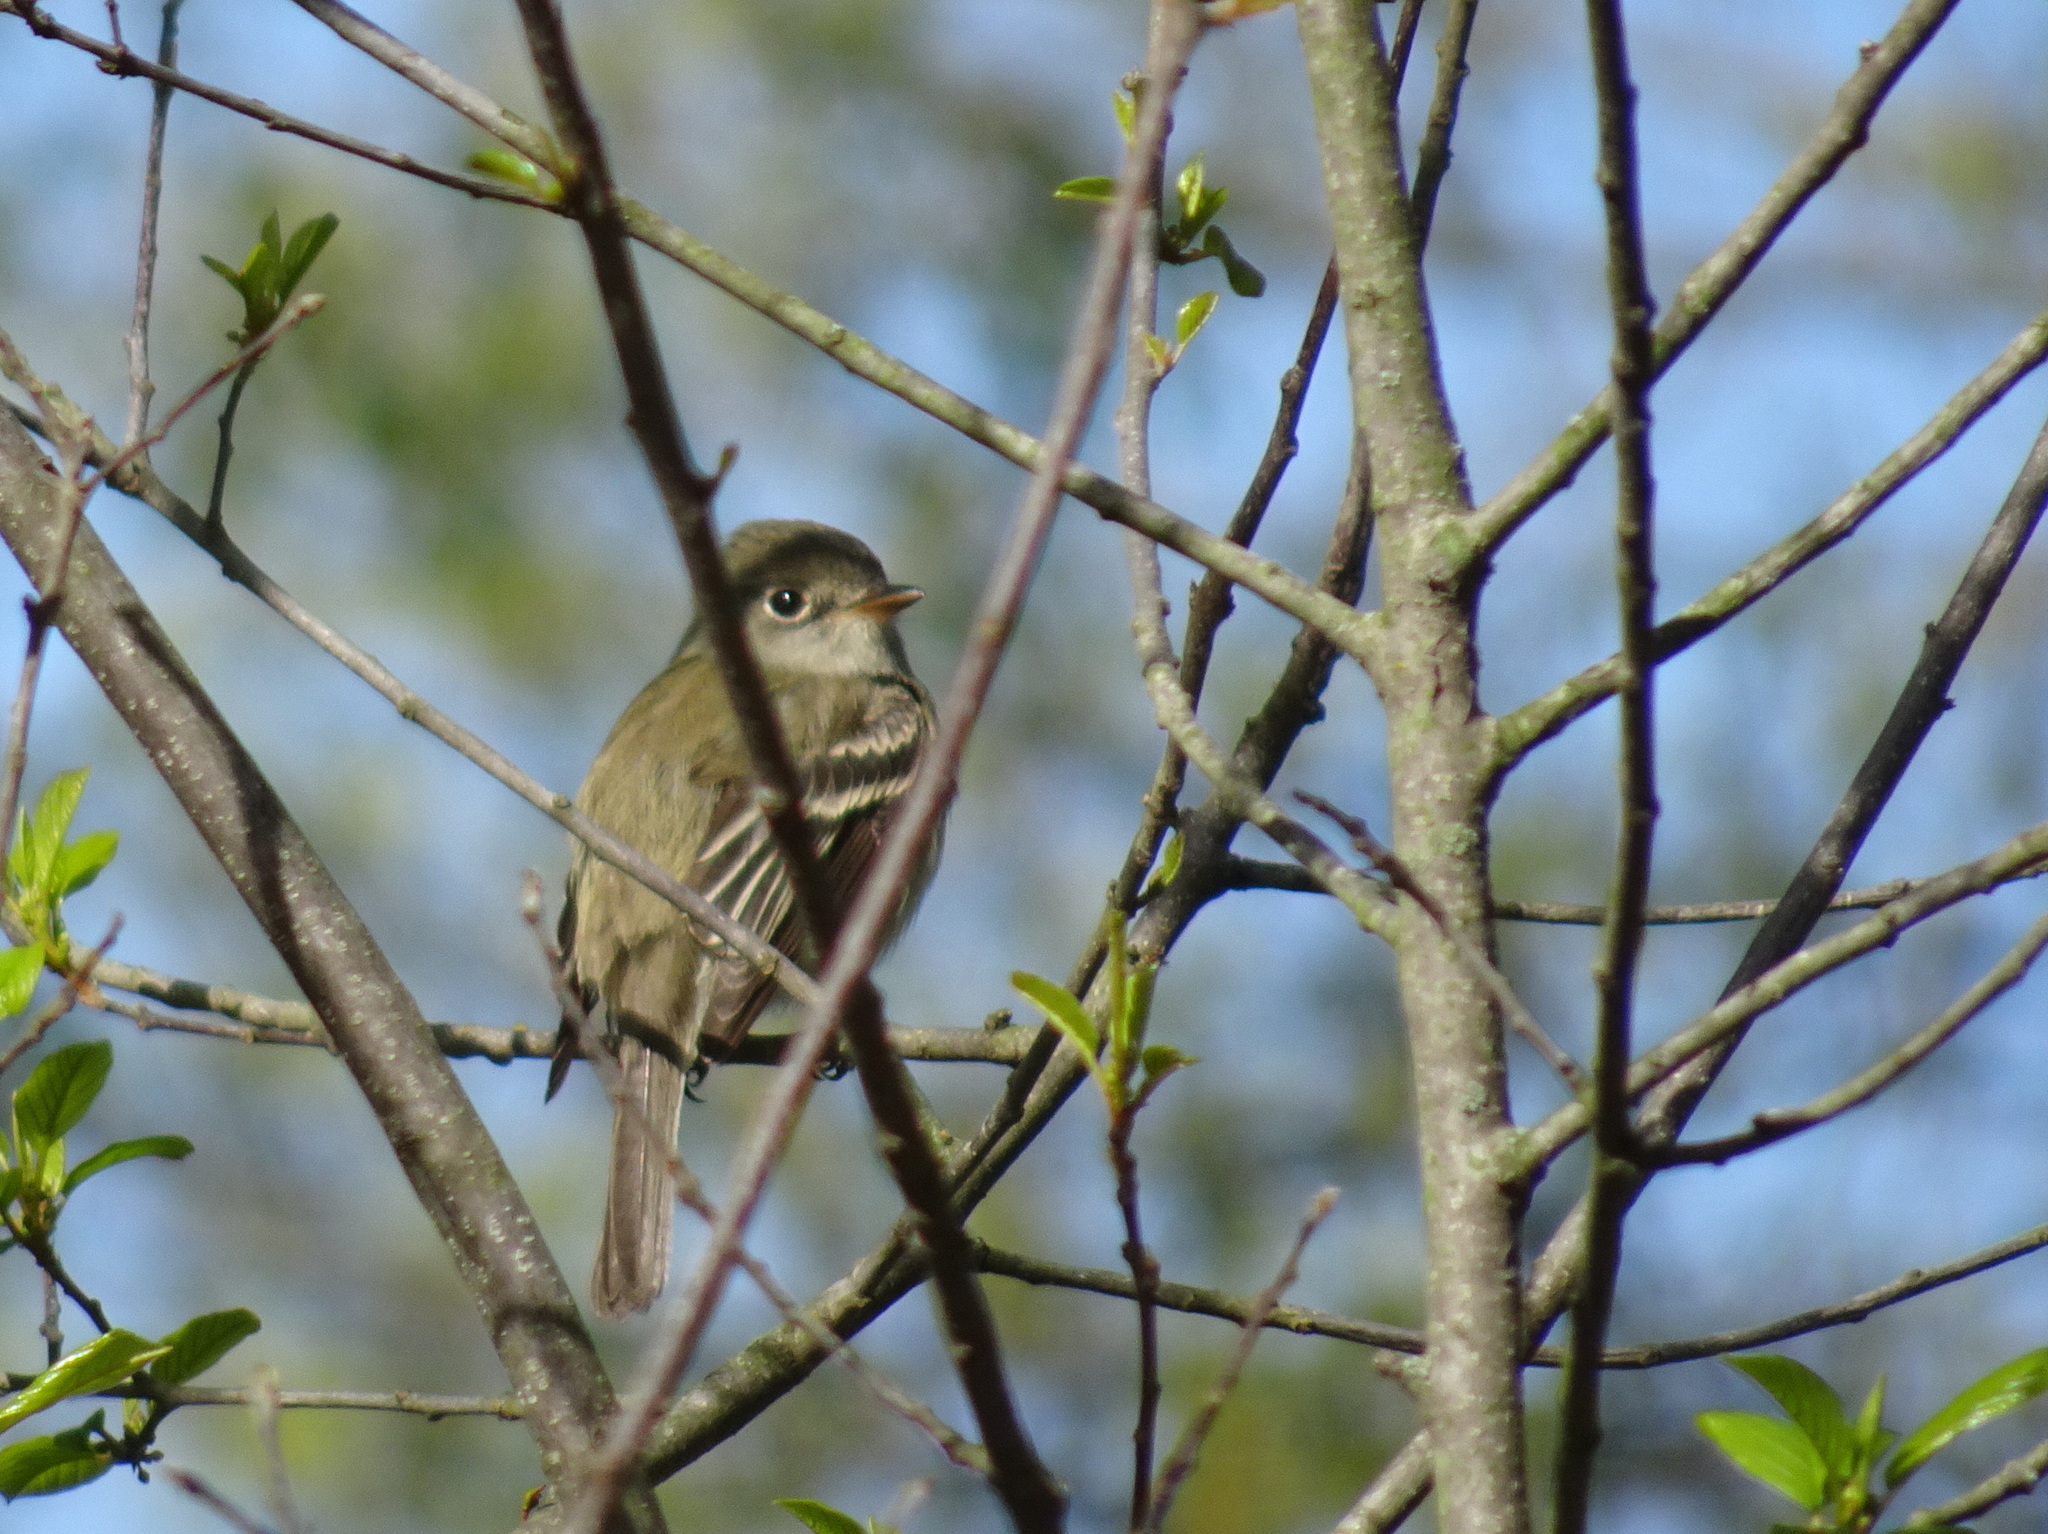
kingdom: Animalia
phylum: Chordata
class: Aves
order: Passeriformes
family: Tyrannidae
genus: Empidonax
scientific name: Empidonax minimus
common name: Least flycatcher
